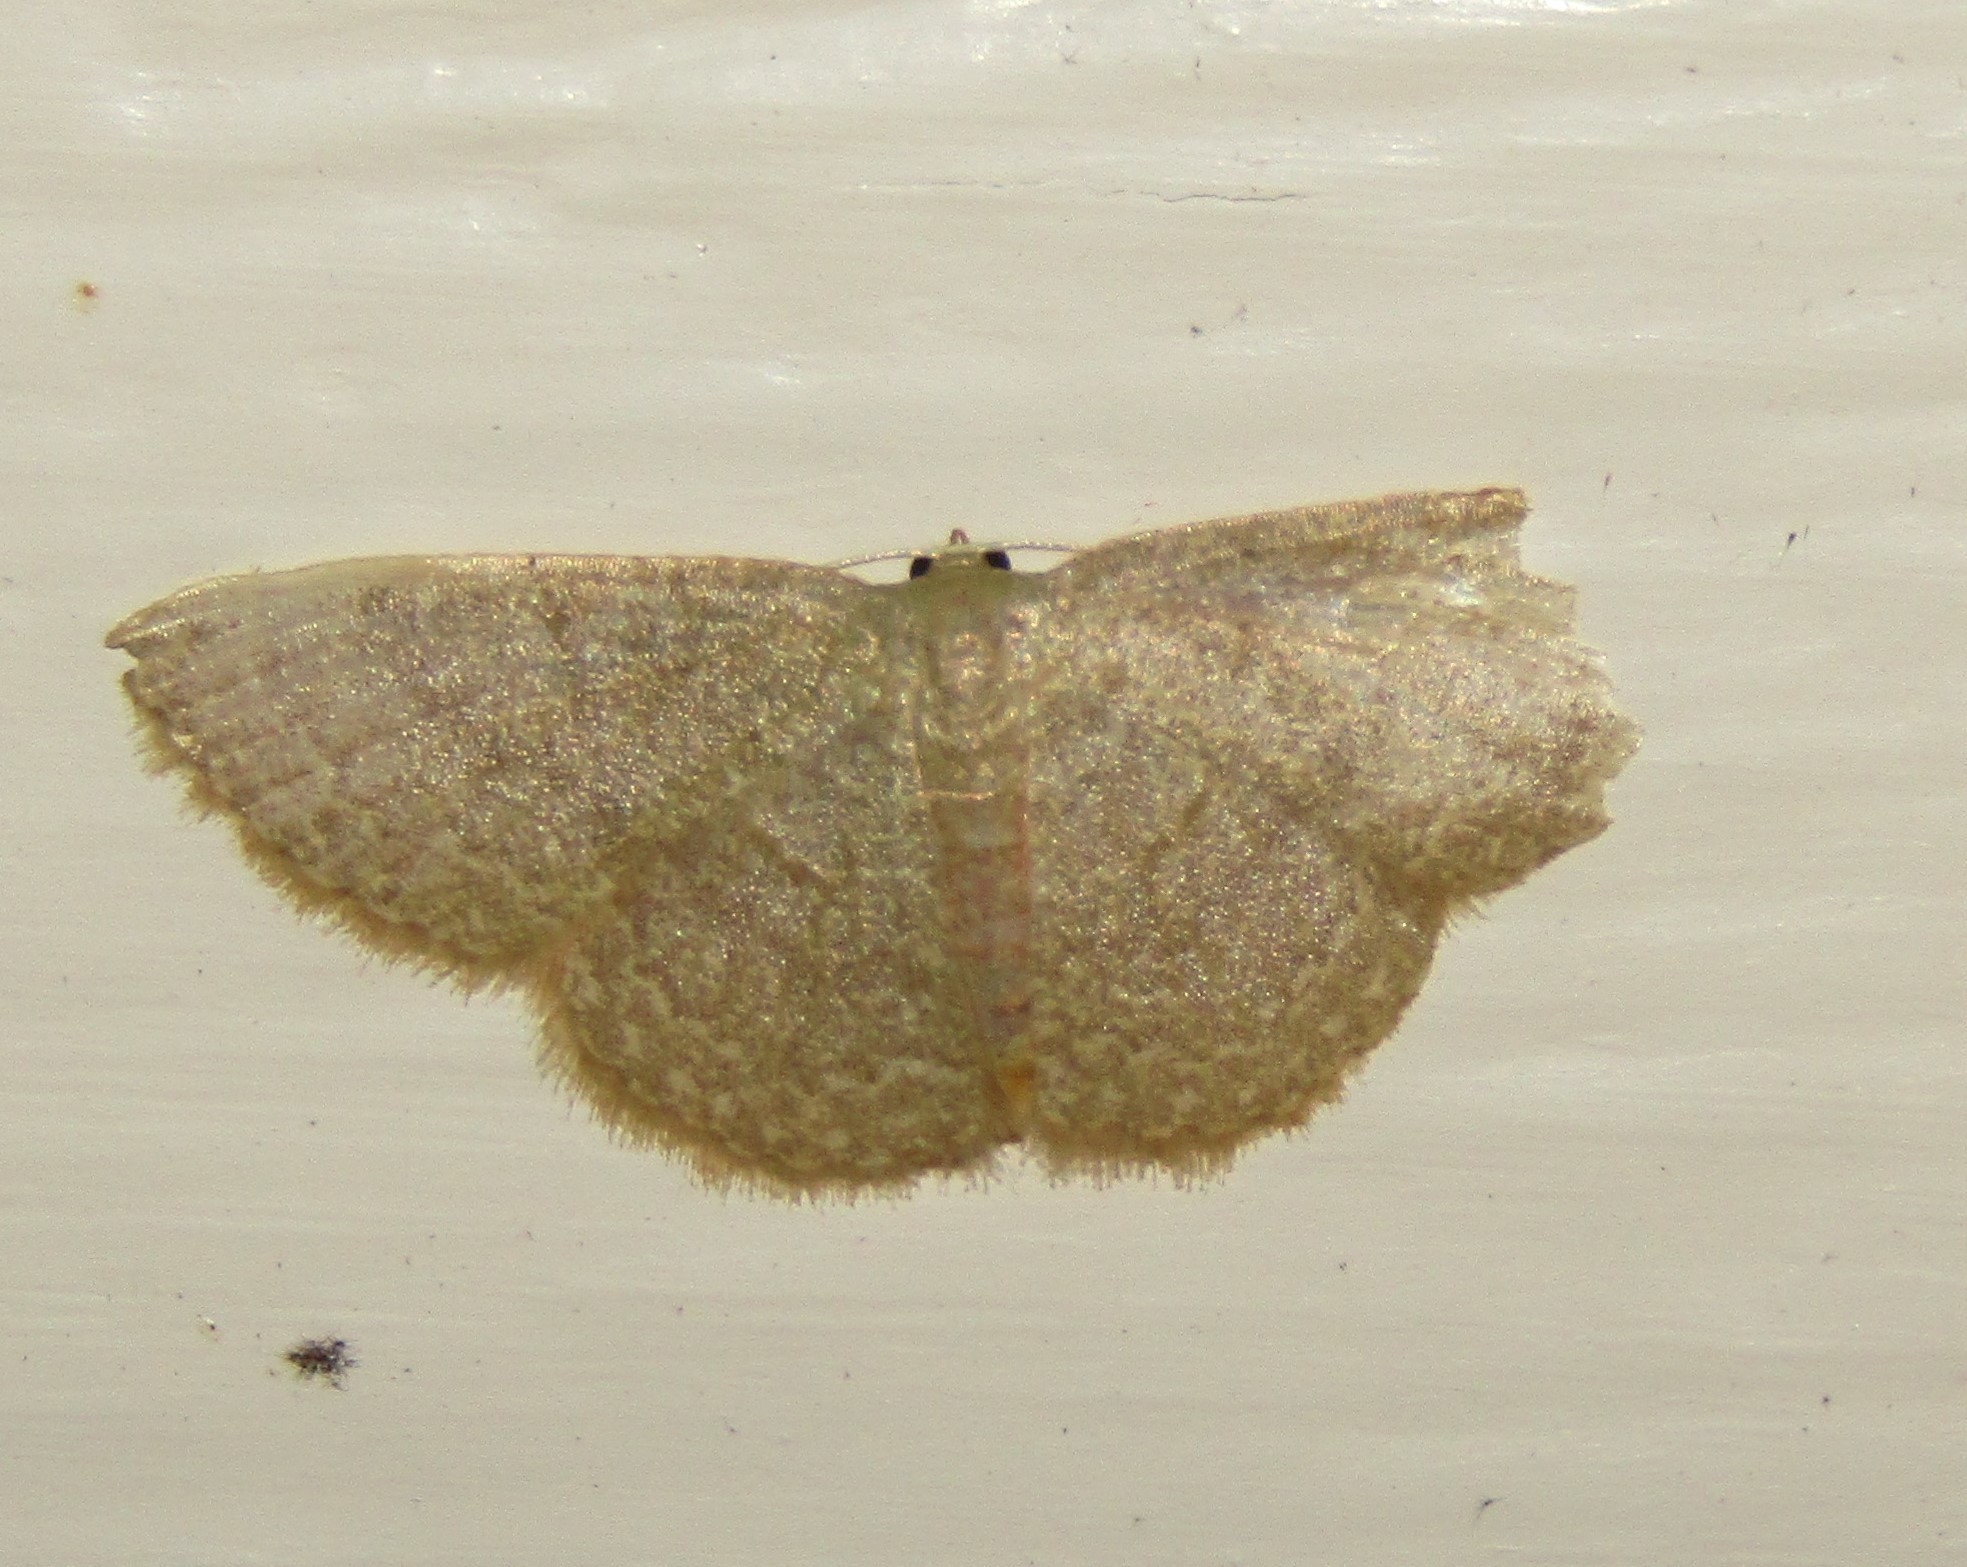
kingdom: Animalia
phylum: Arthropoda
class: Insecta
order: Lepidoptera
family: Geometridae
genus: Pleuroprucha
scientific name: Pleuroprucha insulsaria
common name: Common tan wave
